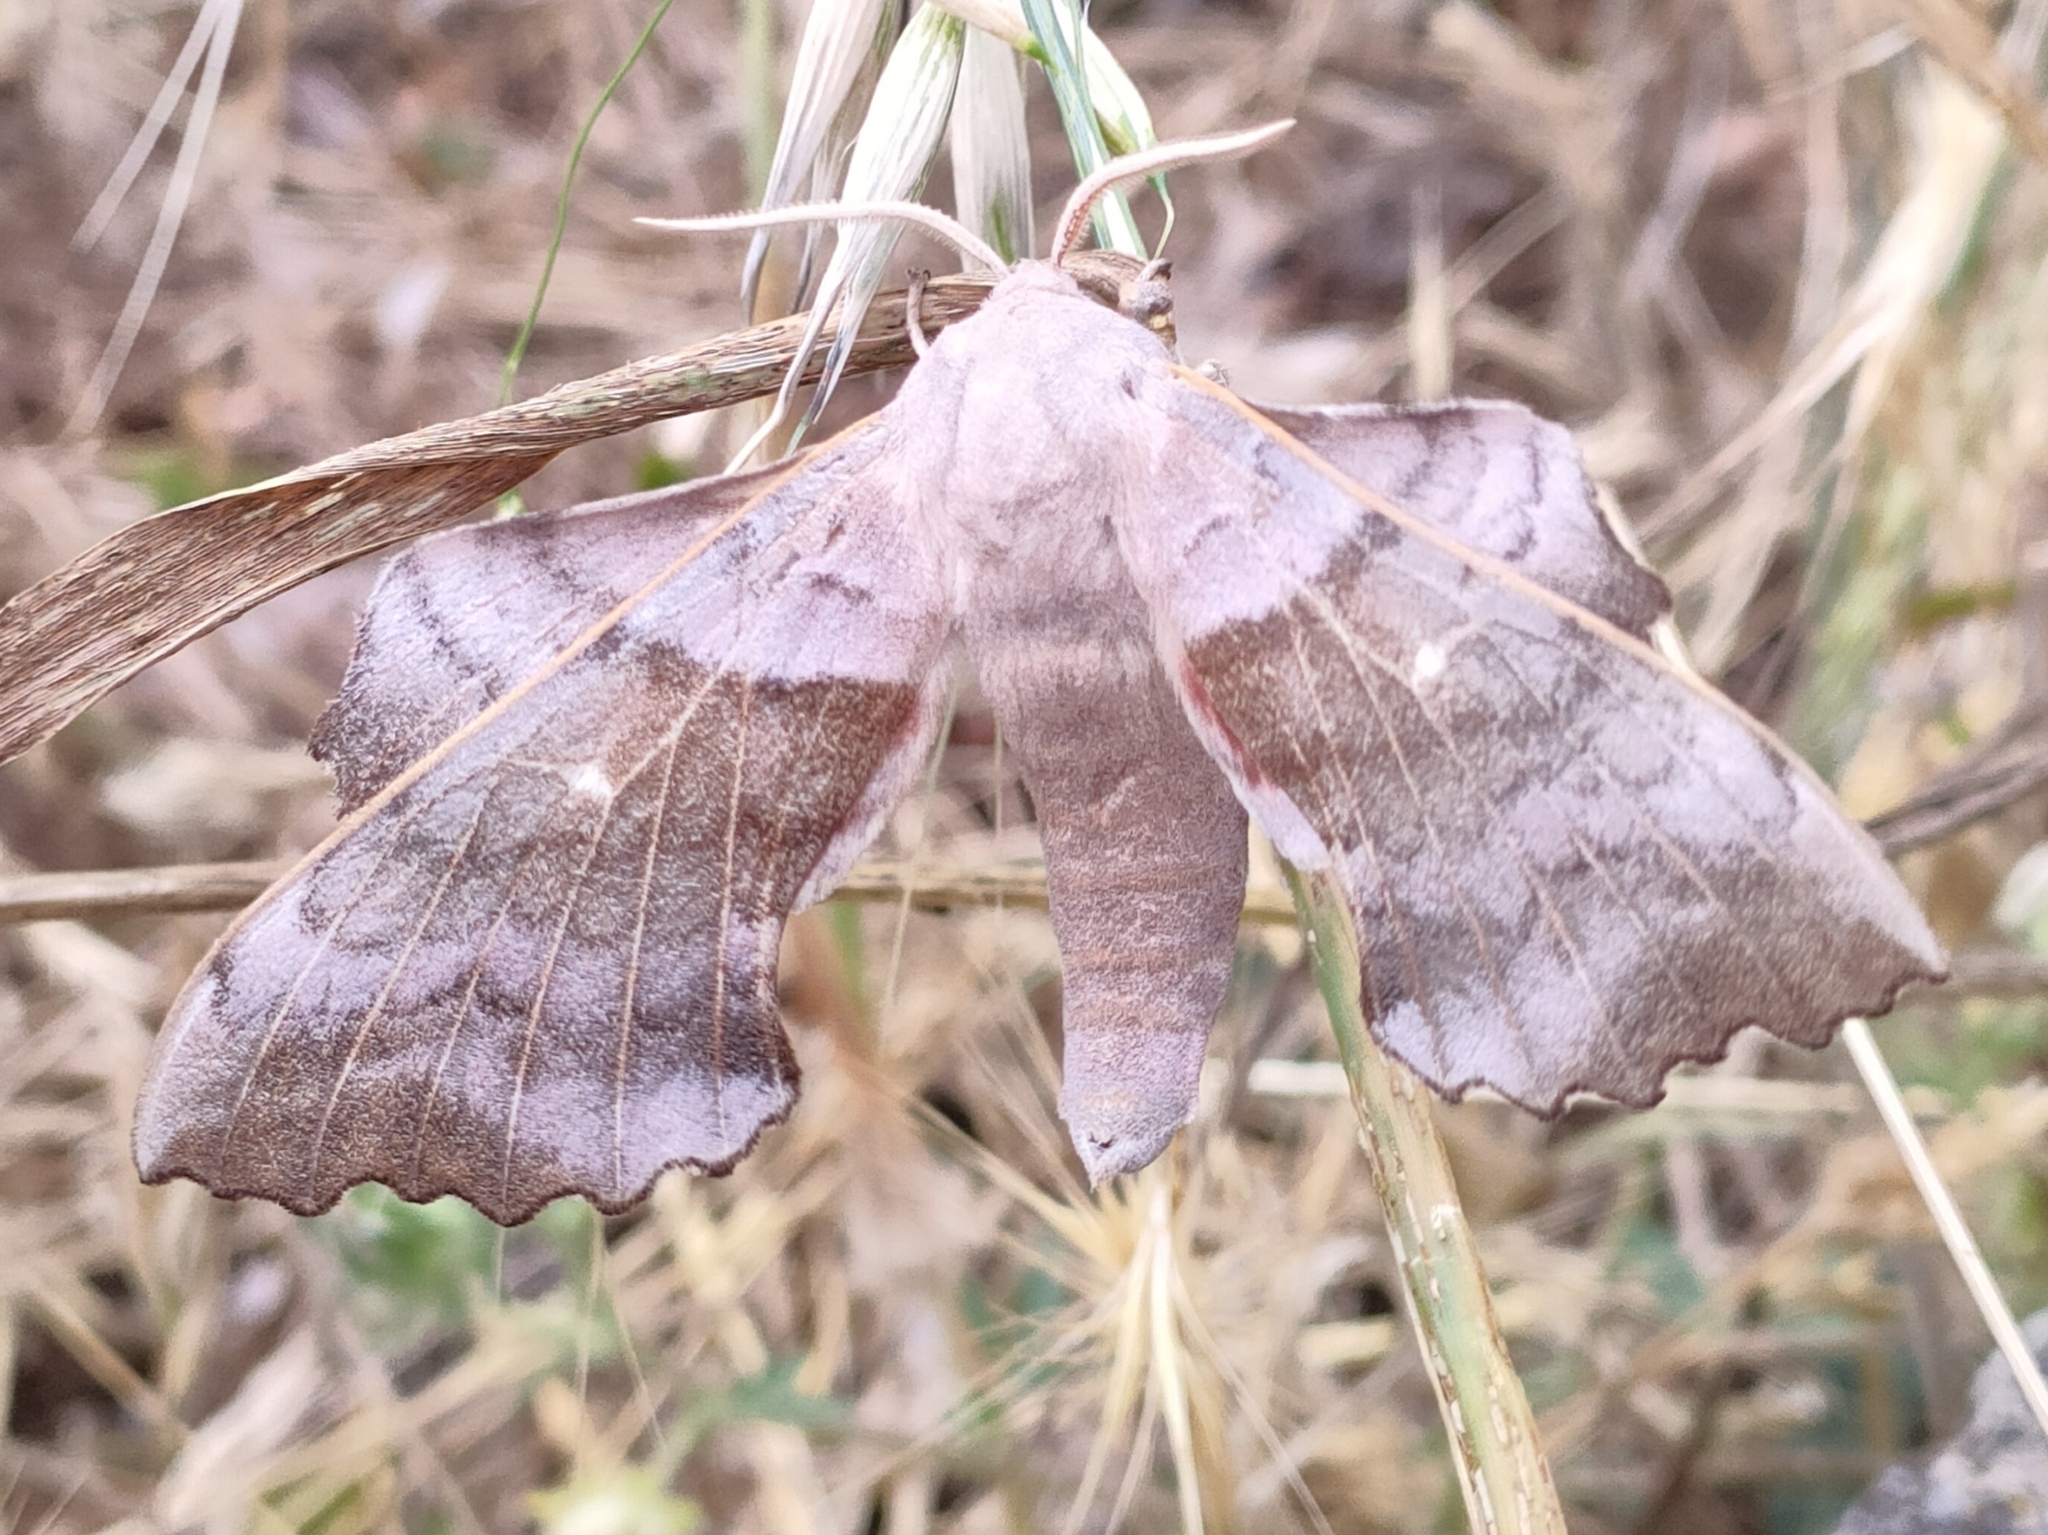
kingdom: Animalia
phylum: Arthropoda
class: Insecta
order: Lepidoptera
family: Sphingidae
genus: Laothoe
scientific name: Laothoe populi
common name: Poplar hawk-moth
